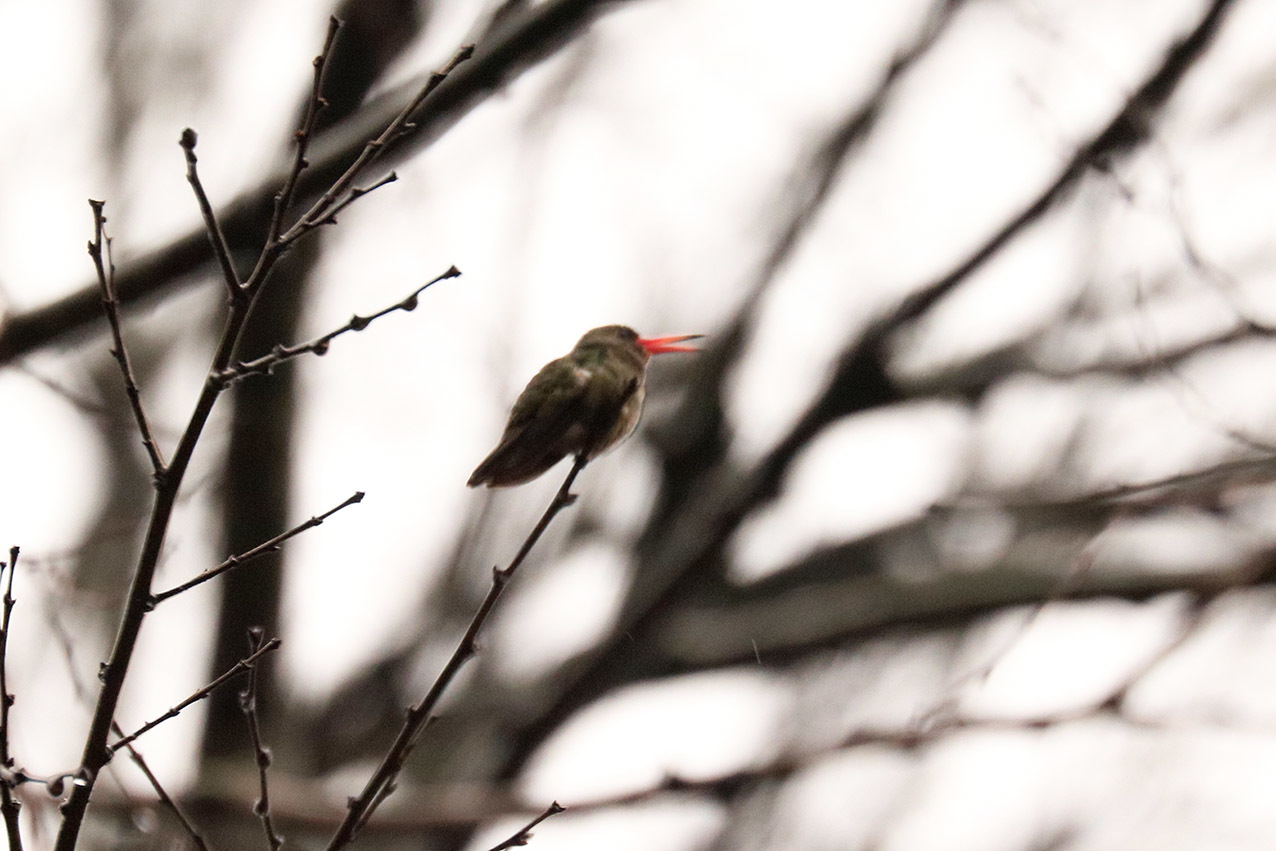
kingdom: Animalia
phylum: Chordata
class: Aves
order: Apodiformes
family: Trochilidae
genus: Hylocharis
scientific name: Hylocharis chrysura
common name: Gilded sapphire
